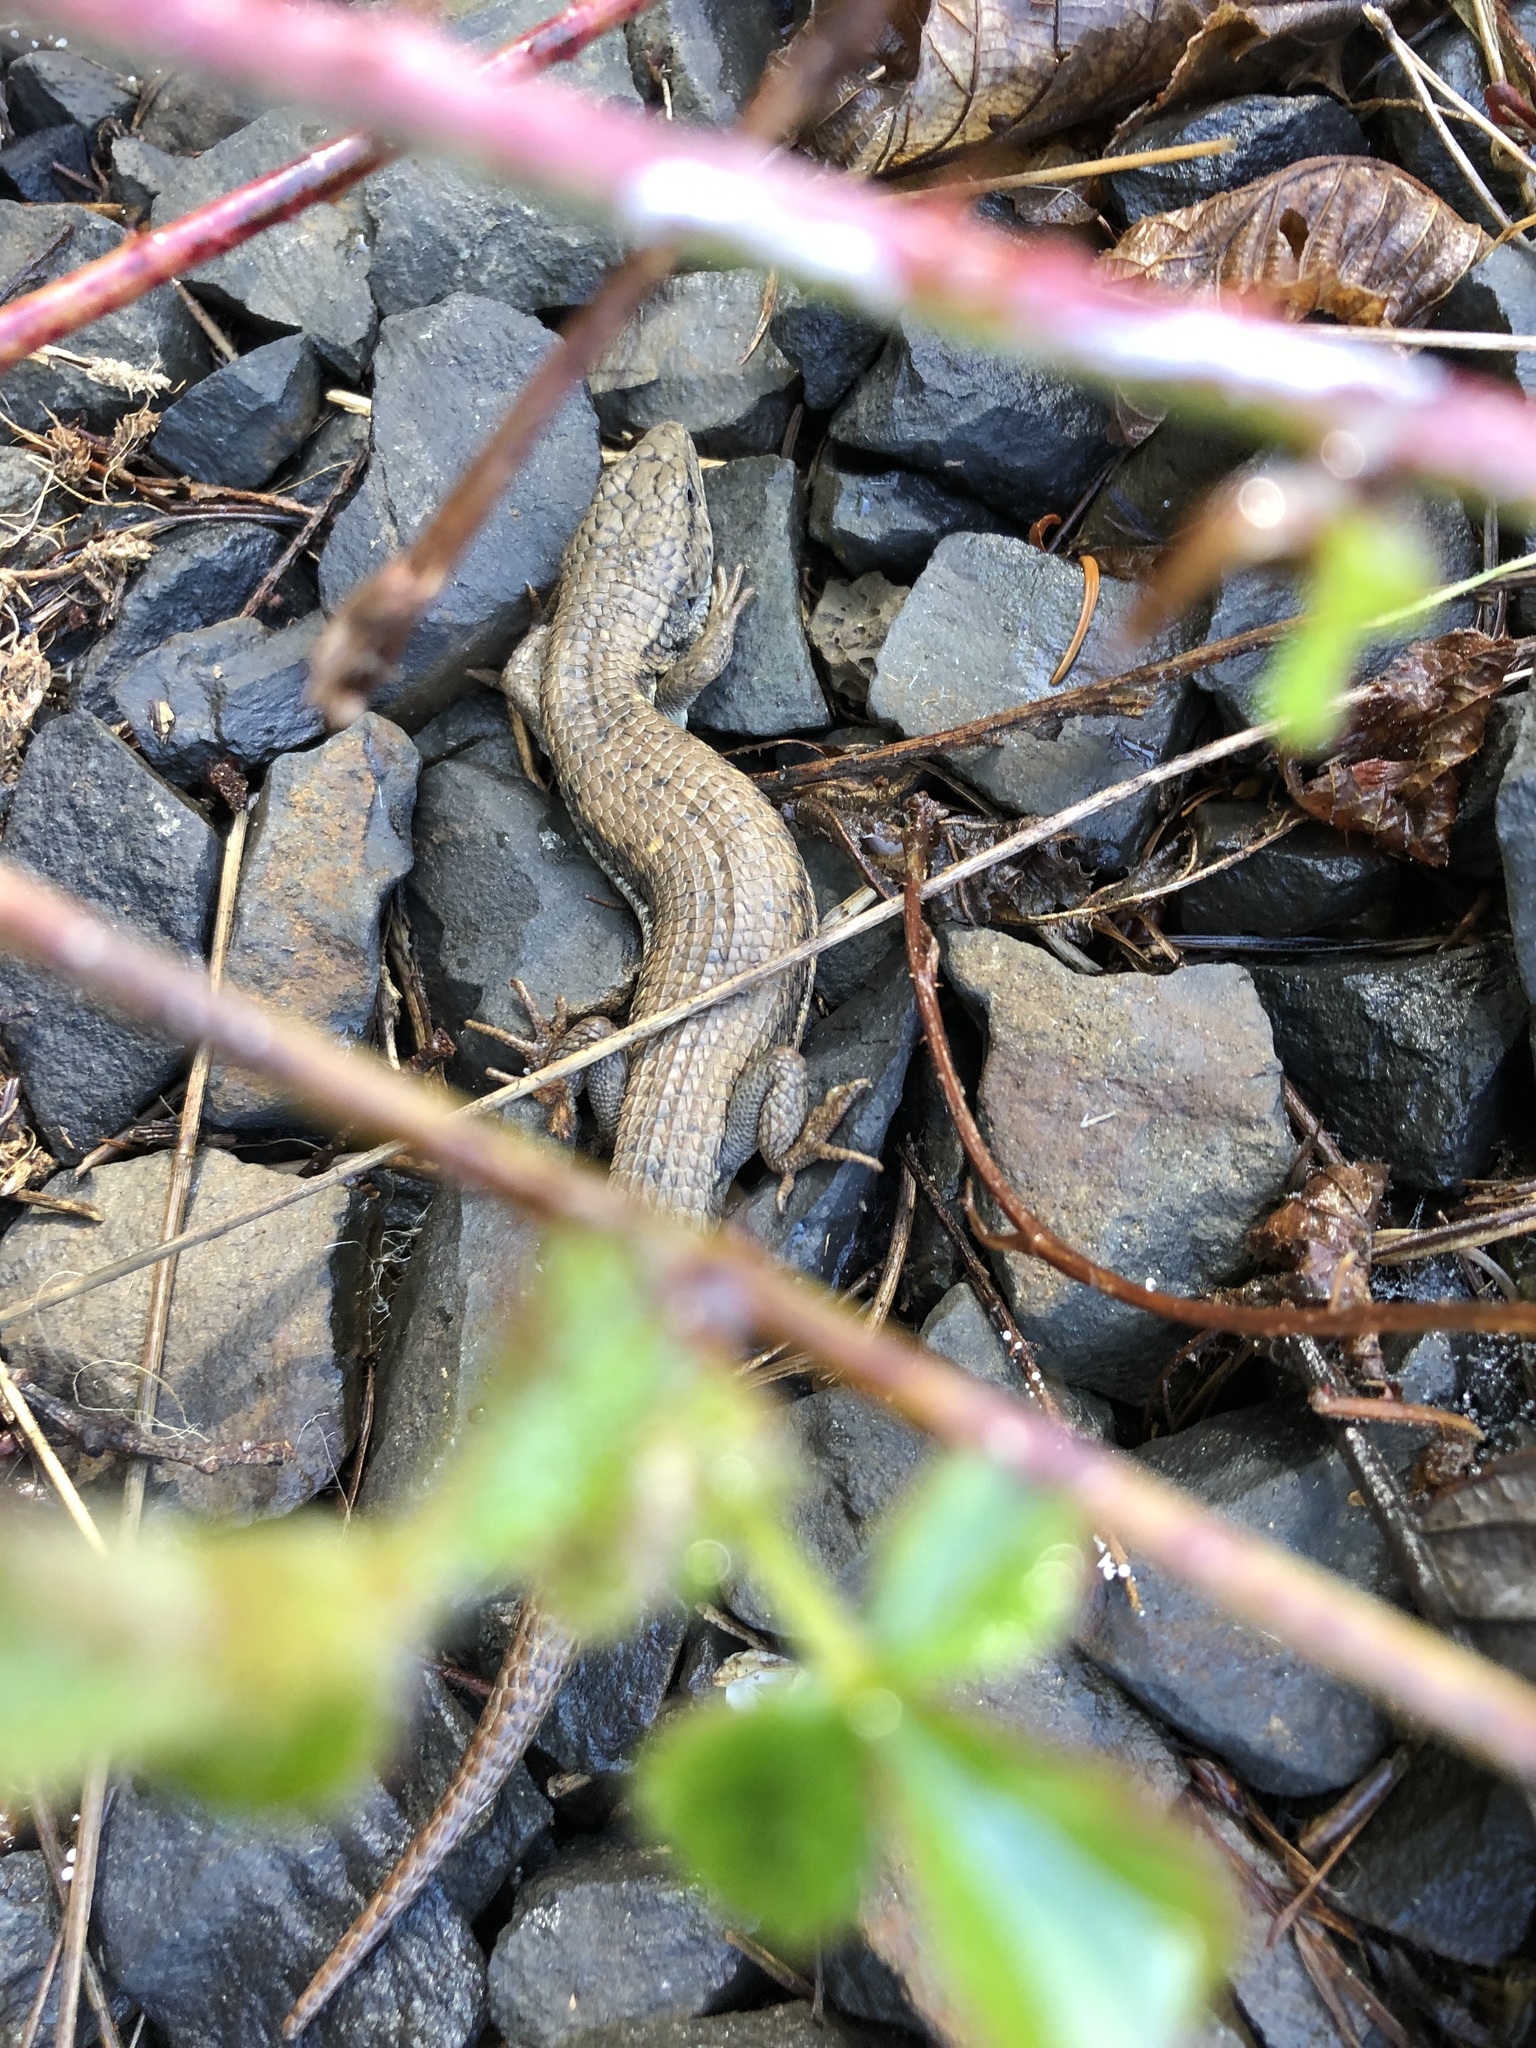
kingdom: Animalia
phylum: Chordata
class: Squamata
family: Anguidae
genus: Elgaria
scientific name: Elgaria coerulea
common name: Northern alligator lizard
